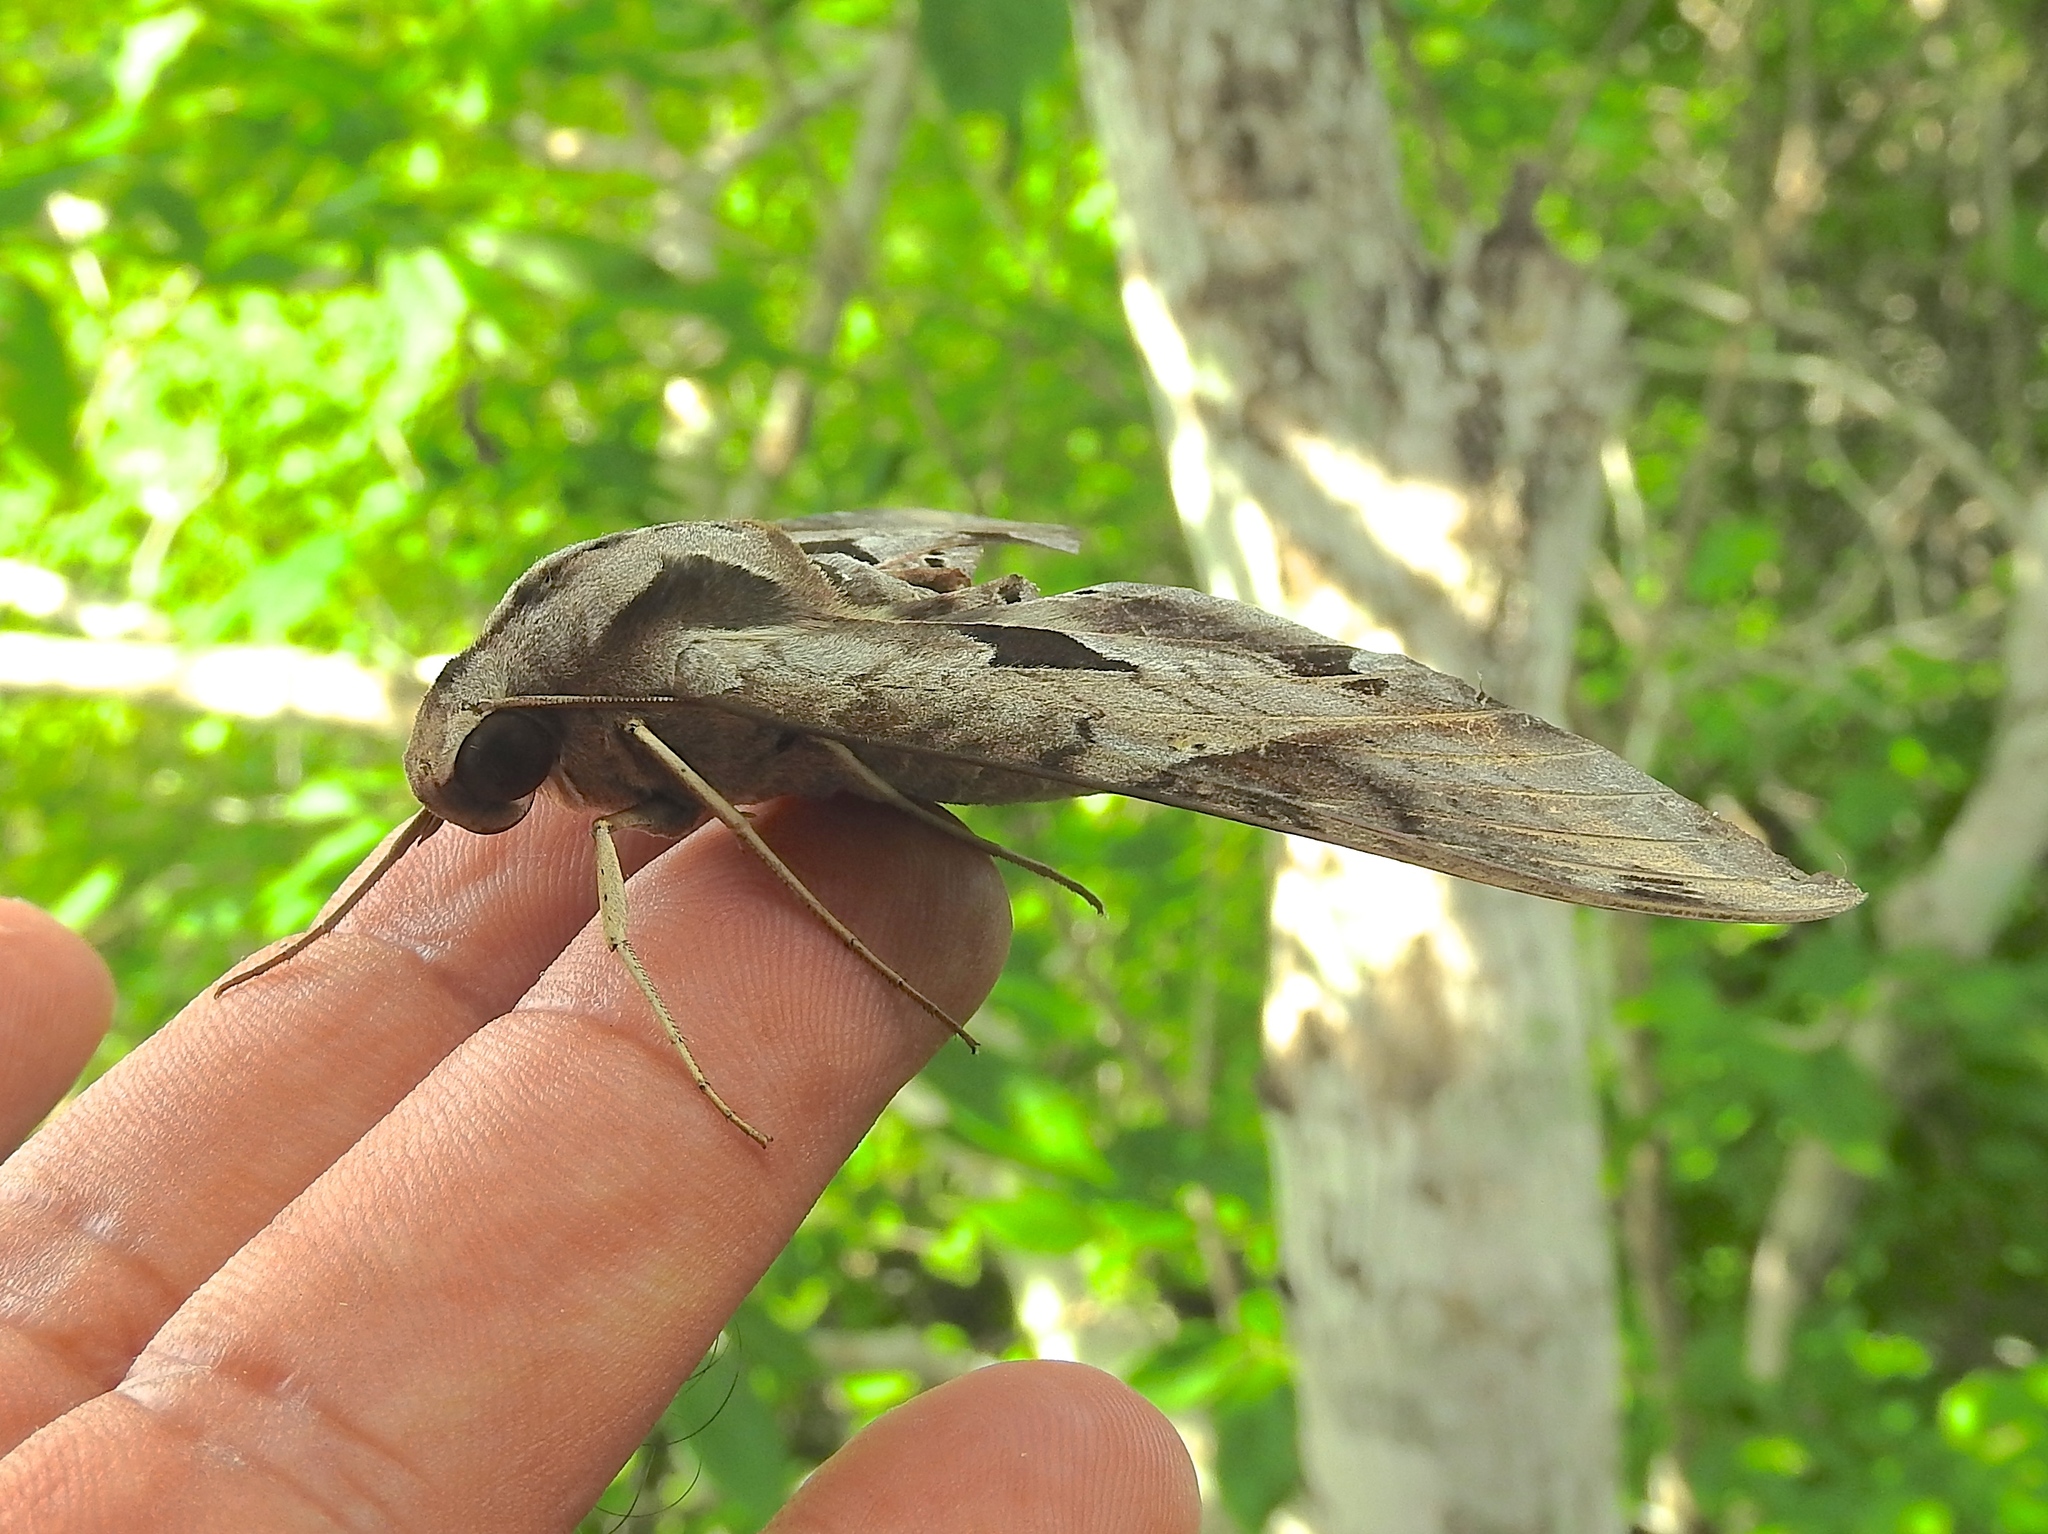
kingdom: Animalia
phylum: Arthropoda
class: Insecta
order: Lepidoptera
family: Sphingidae
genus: Eumorpha
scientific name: Eumorpha satellitia
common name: Satellite sphinx
